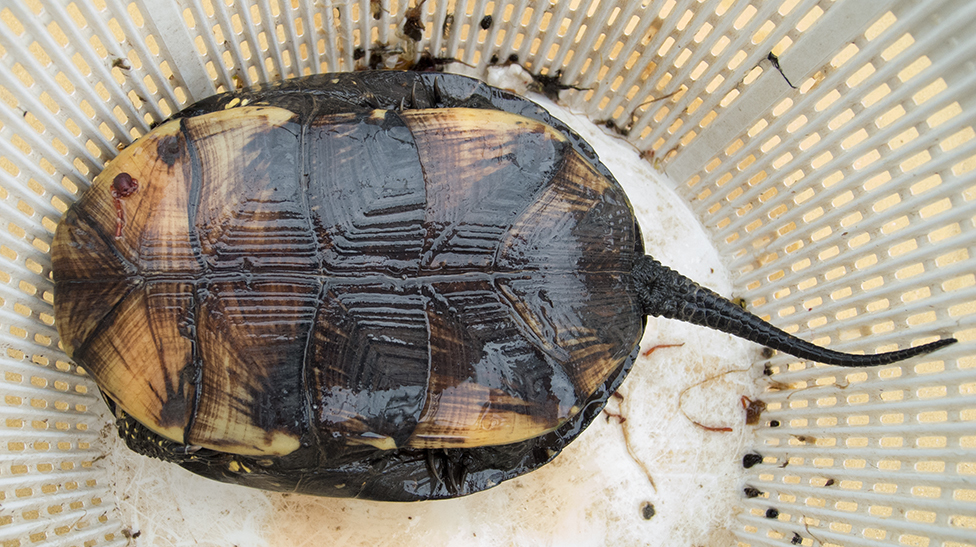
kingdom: Animalia
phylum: Chordata
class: Testudines
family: Emydidae
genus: Emys
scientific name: Emys orbicularis
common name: European pond turtle
